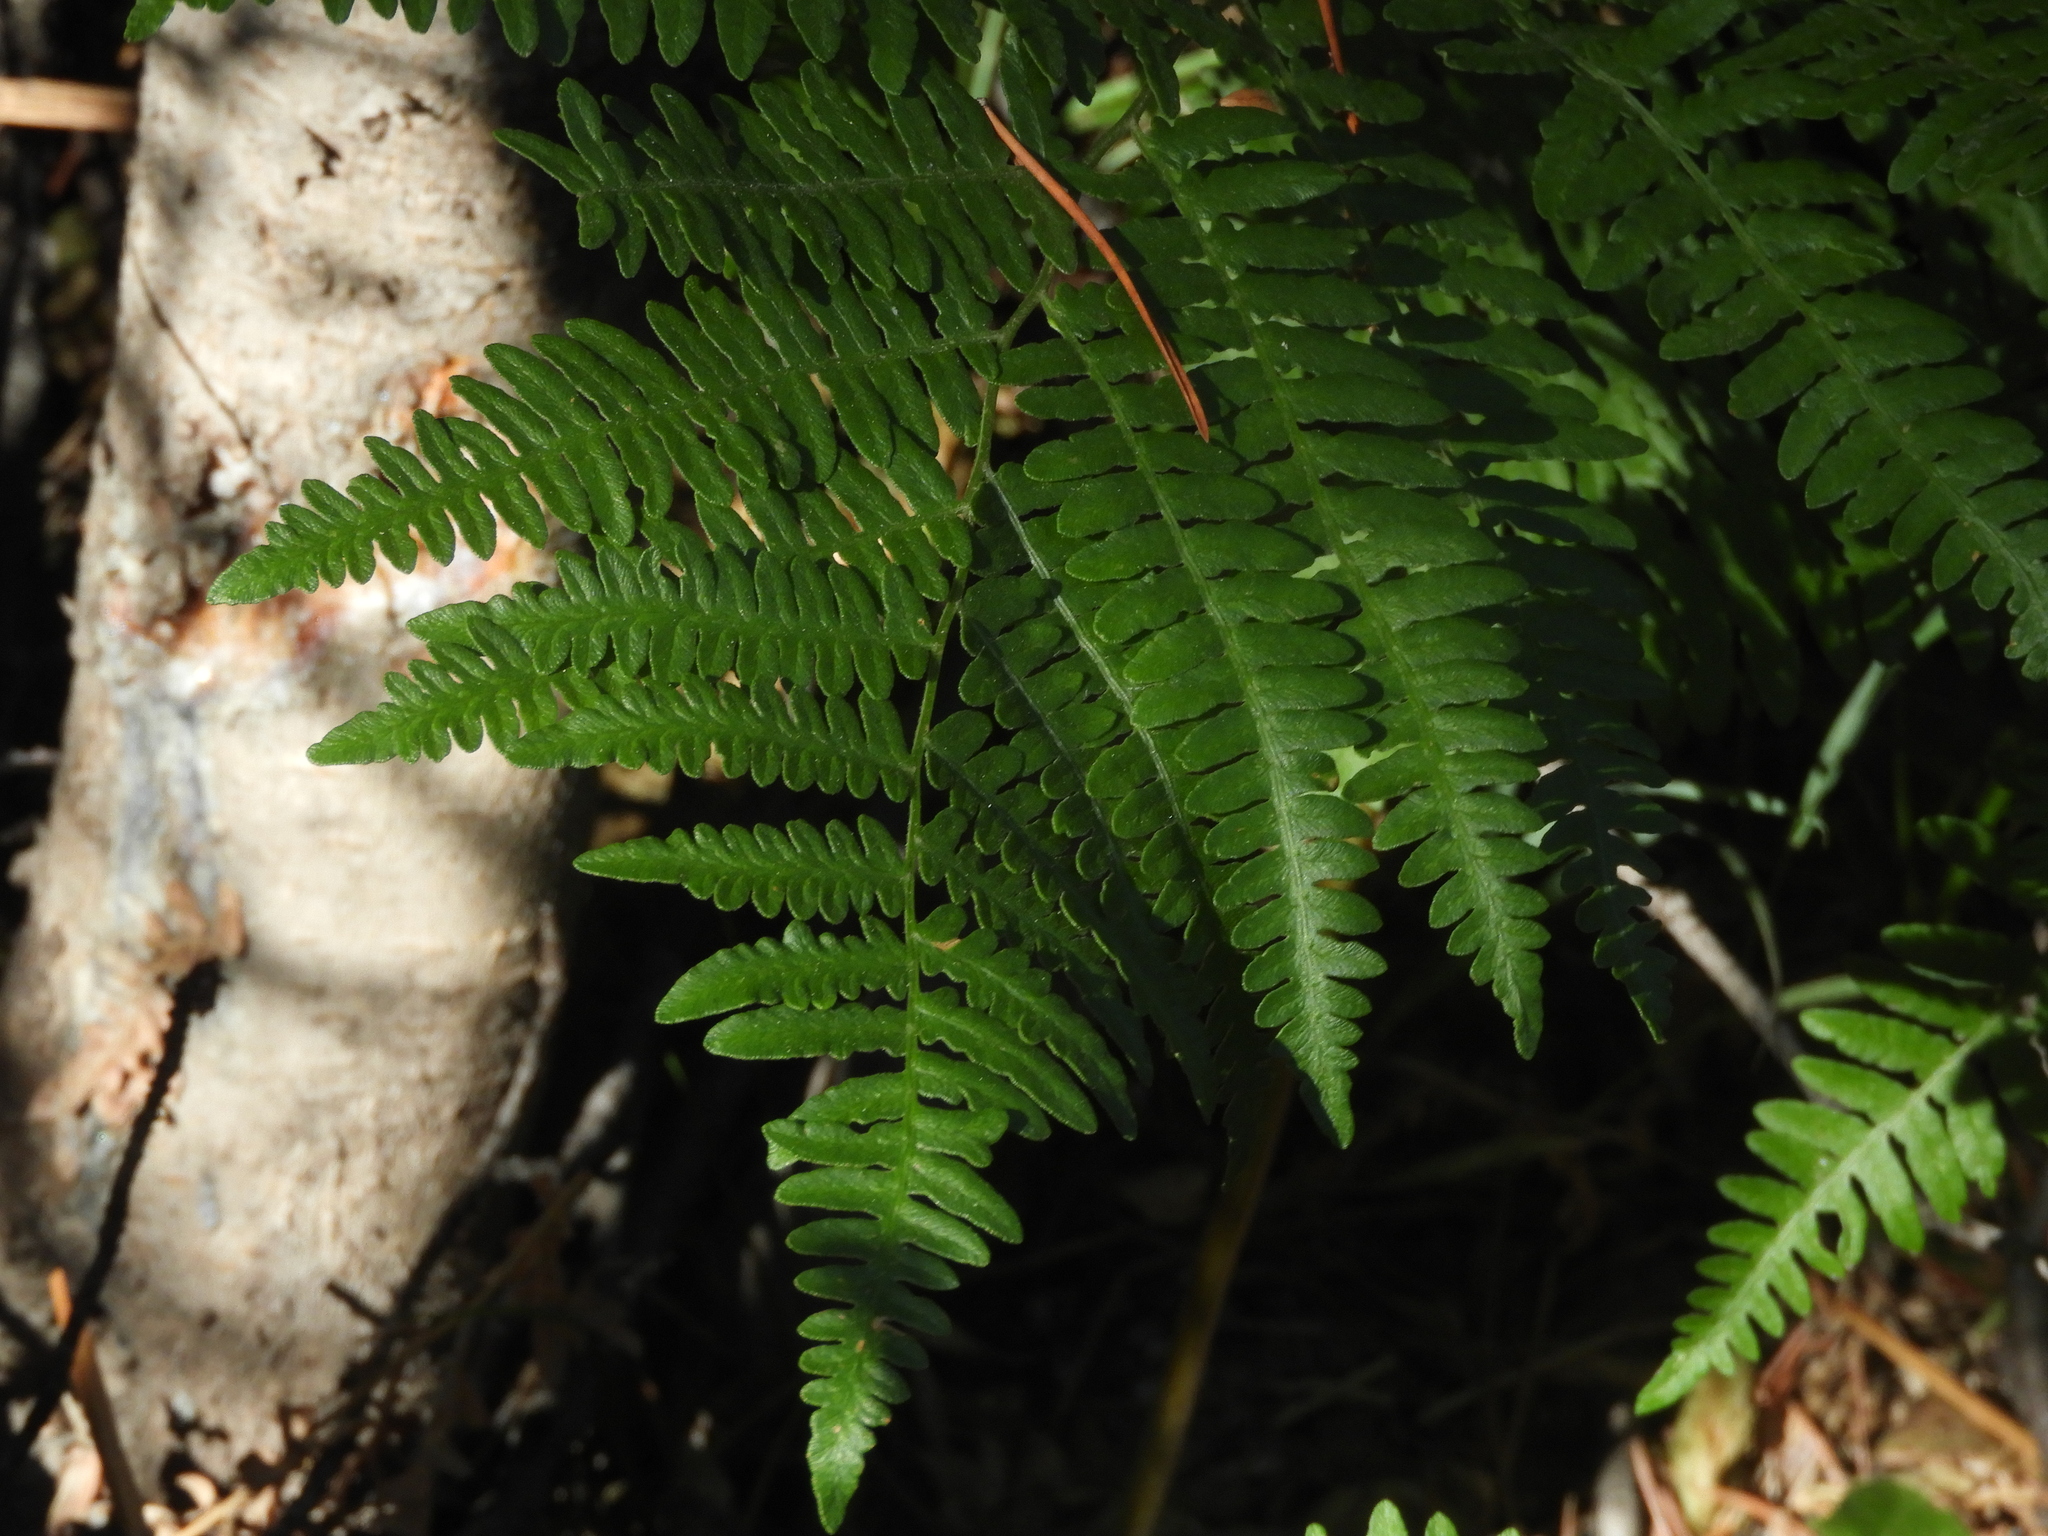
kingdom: Plantae
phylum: Tracheophyta
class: Polypodiopsida
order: Polypodiales
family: Dennstaedtiaceae
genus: Pteridium
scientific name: Pteridium aquilinum
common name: Bracken
